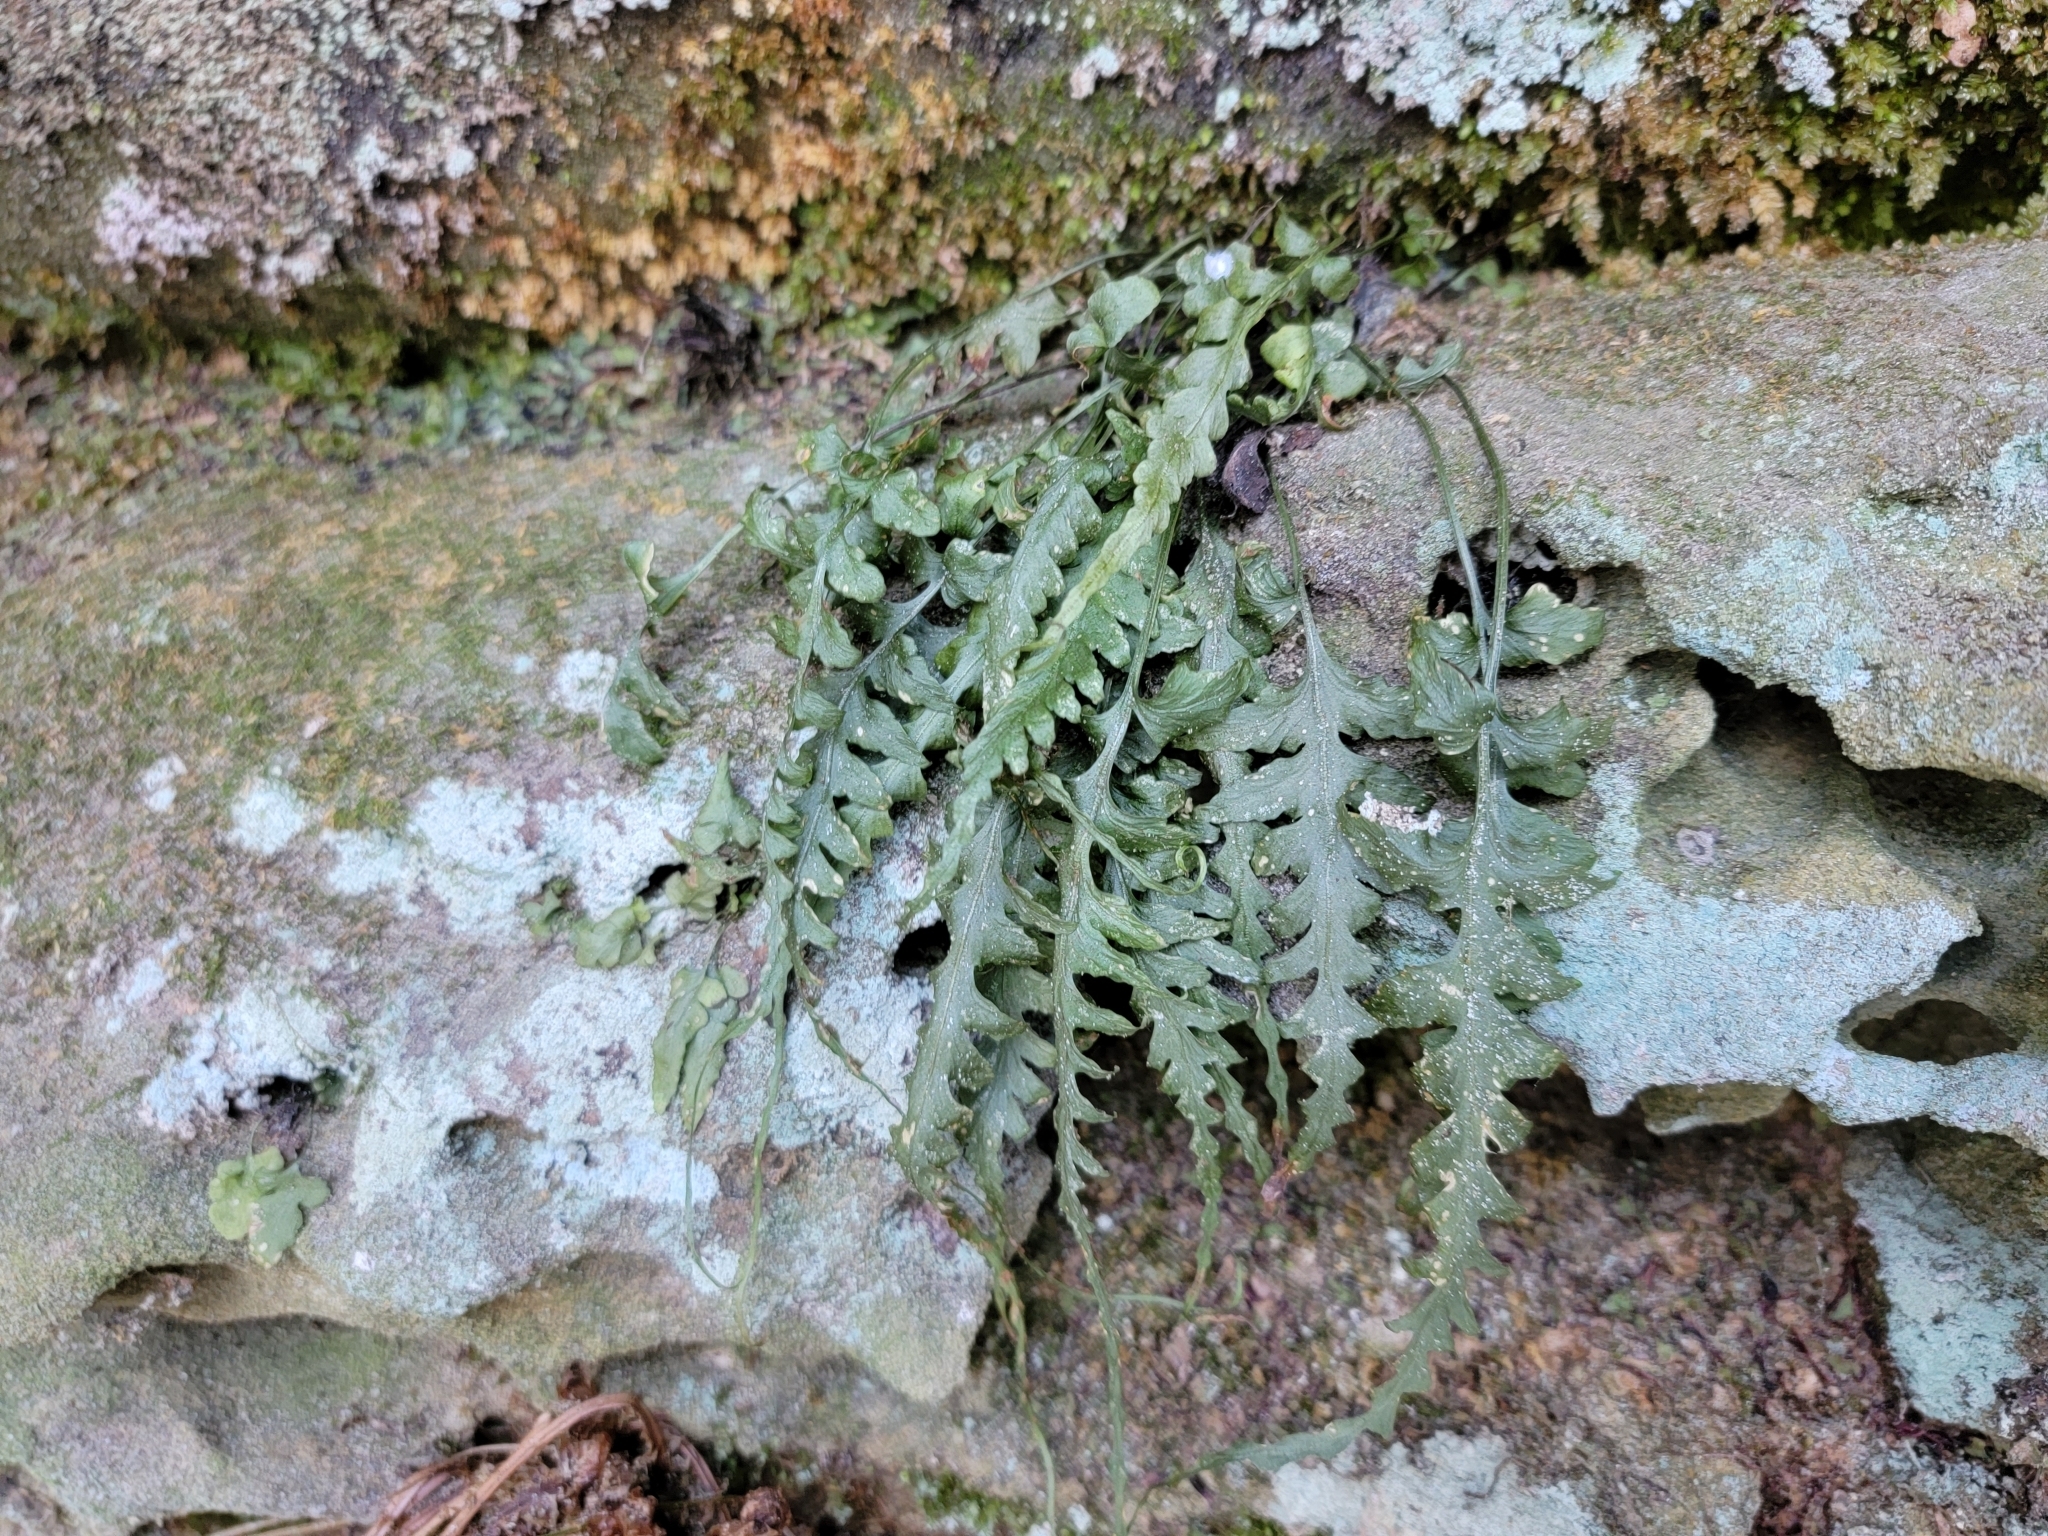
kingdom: Plantae
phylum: Tracheophyta
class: Polypodiopsida
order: Polypodiales
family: Aspleniaceae
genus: Asplenium
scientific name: Asplenium pinnatifidum
